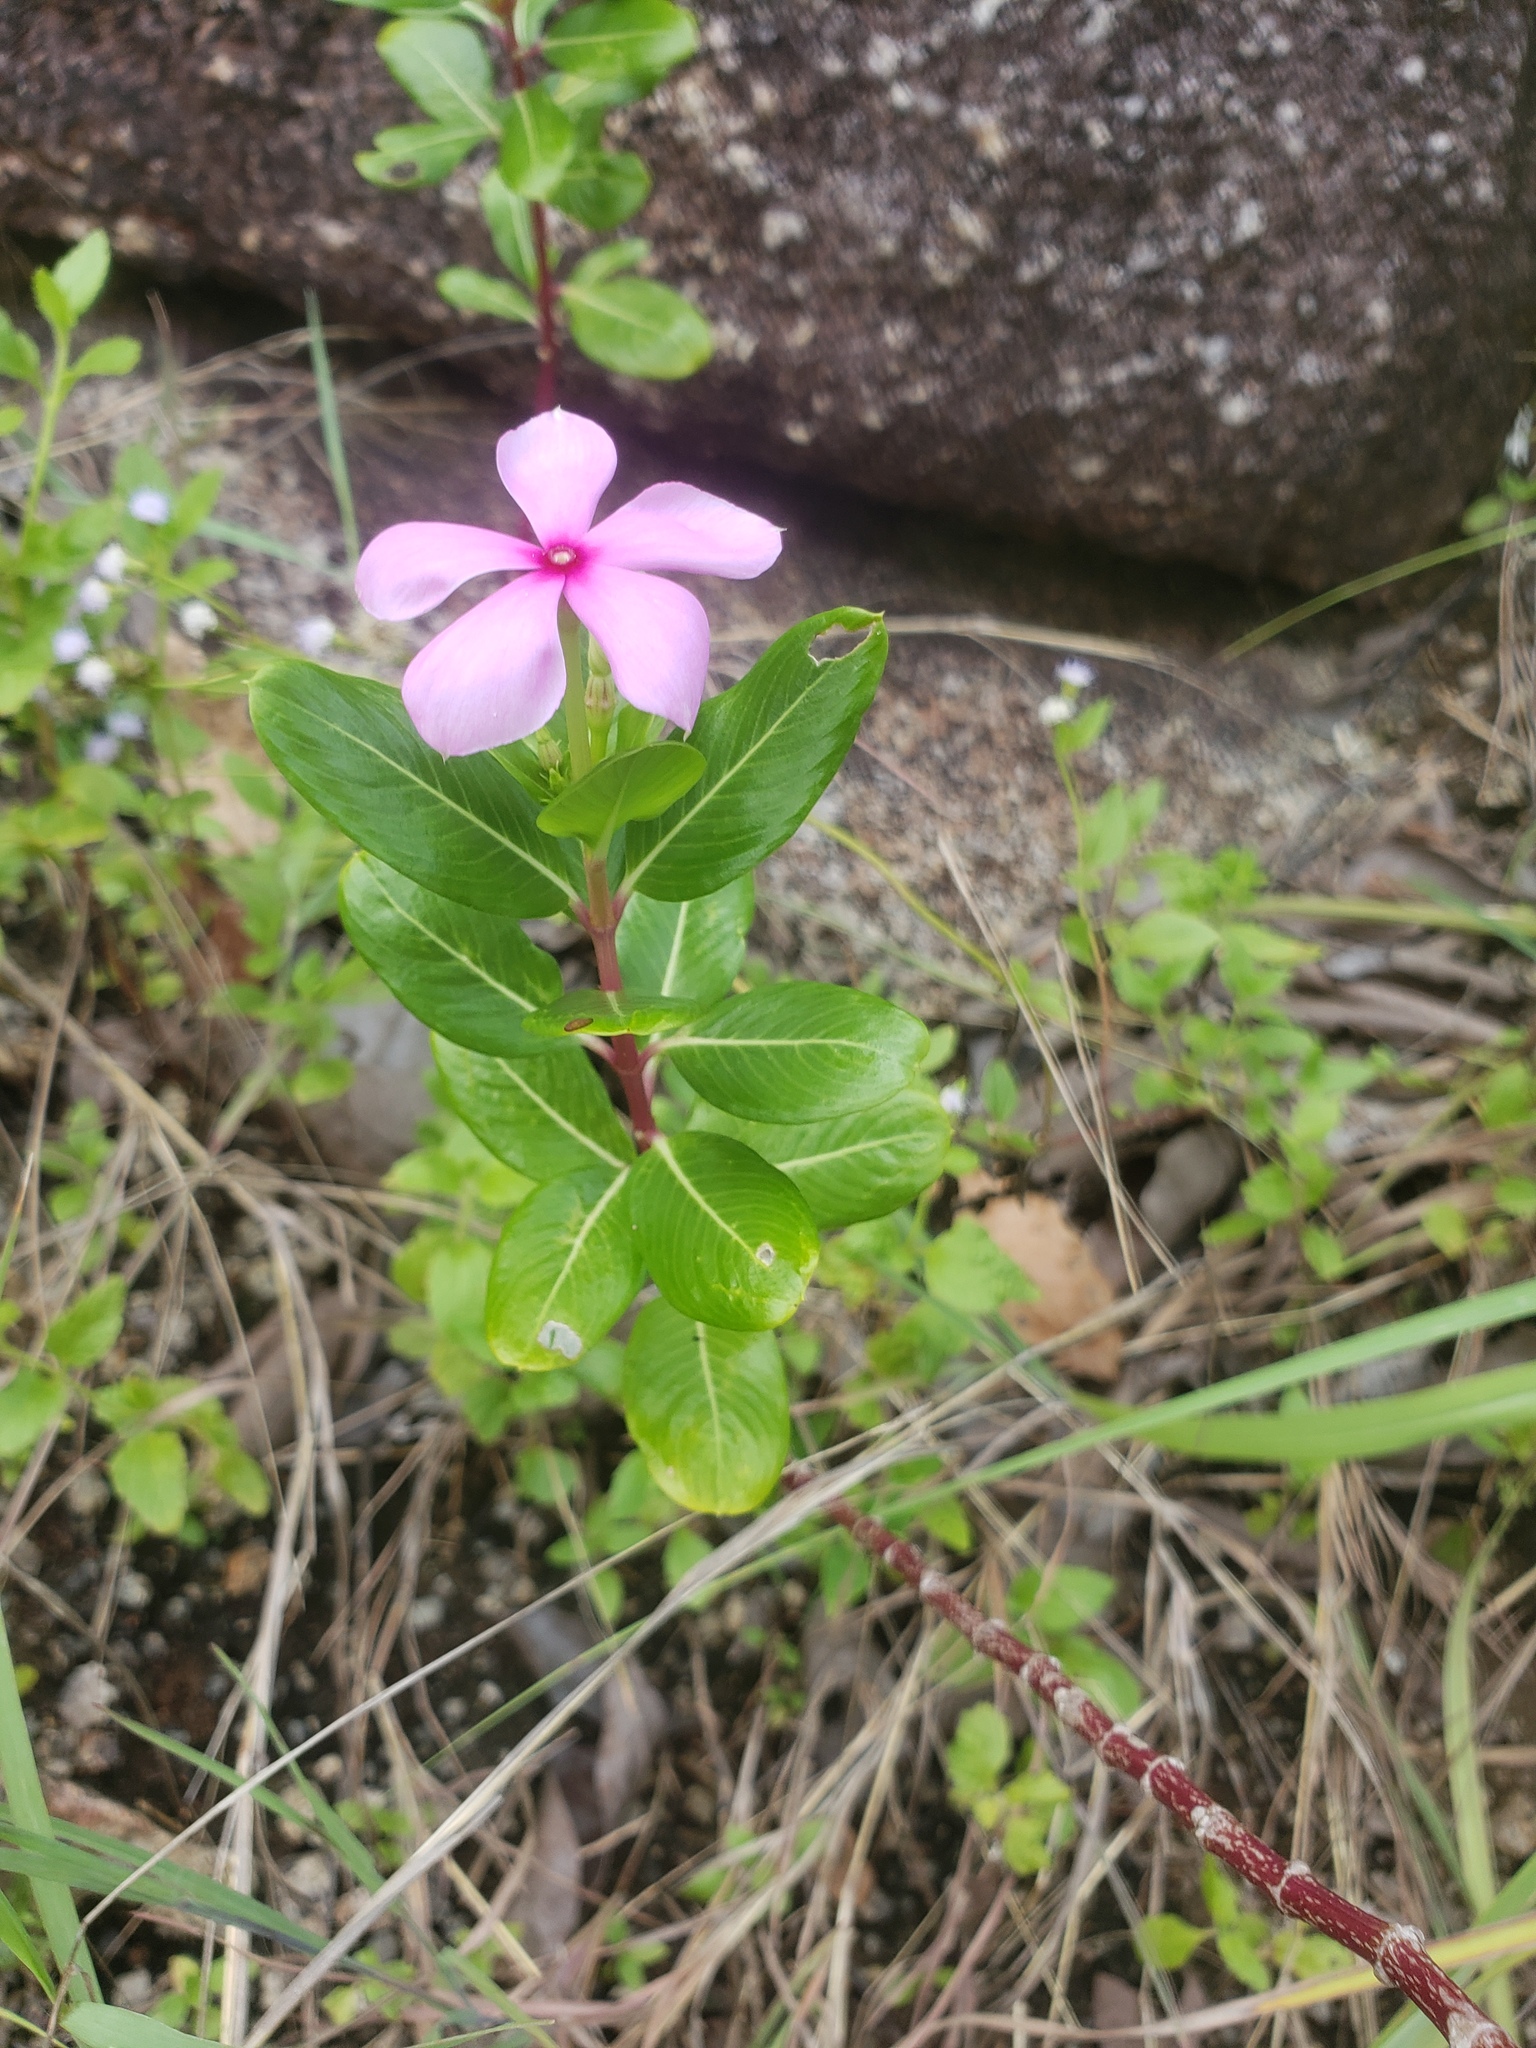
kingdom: Plantae
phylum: Tracheophyta
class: Magnoliopsida
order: Gentianales
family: Apocynaceae
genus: Catharanthus
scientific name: Catharanthus roseus
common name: Madagascar periwinkle
